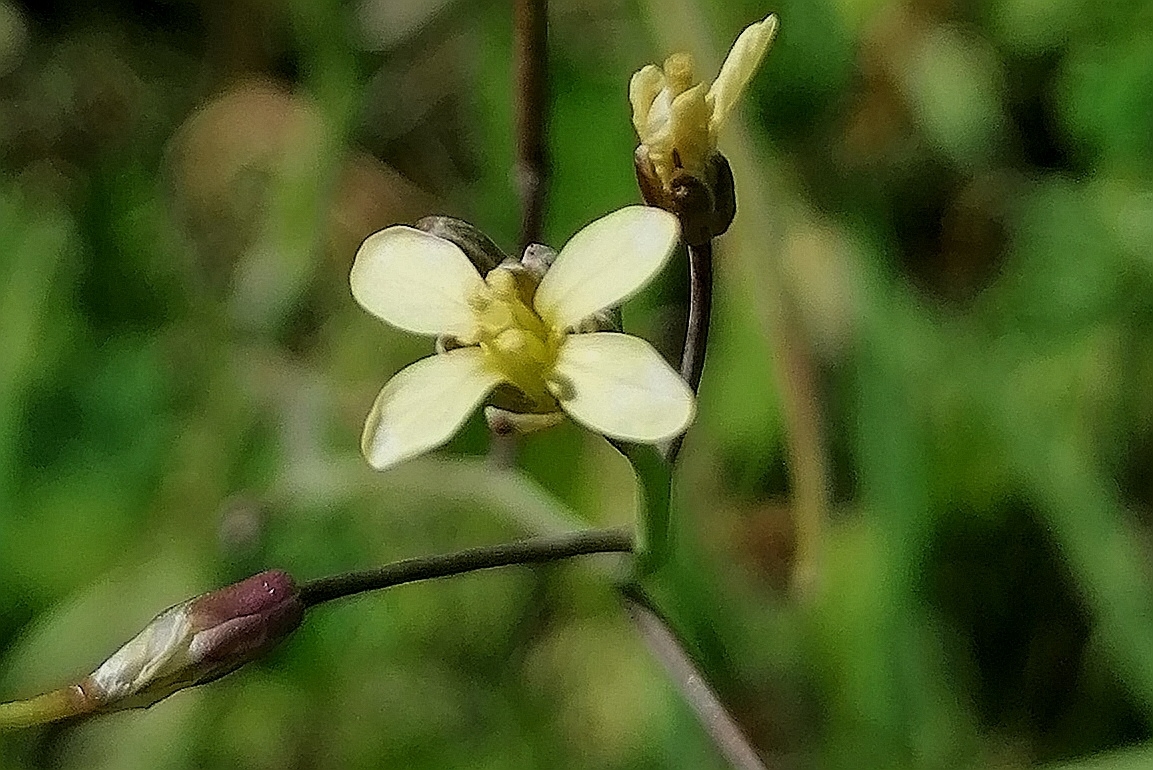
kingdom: Plantae
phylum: Tracheophyta
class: Magnoliopsida
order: Brassicales
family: Brassicaceae
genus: Brassica
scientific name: Brassica tournefortii
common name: Pale cabbage
